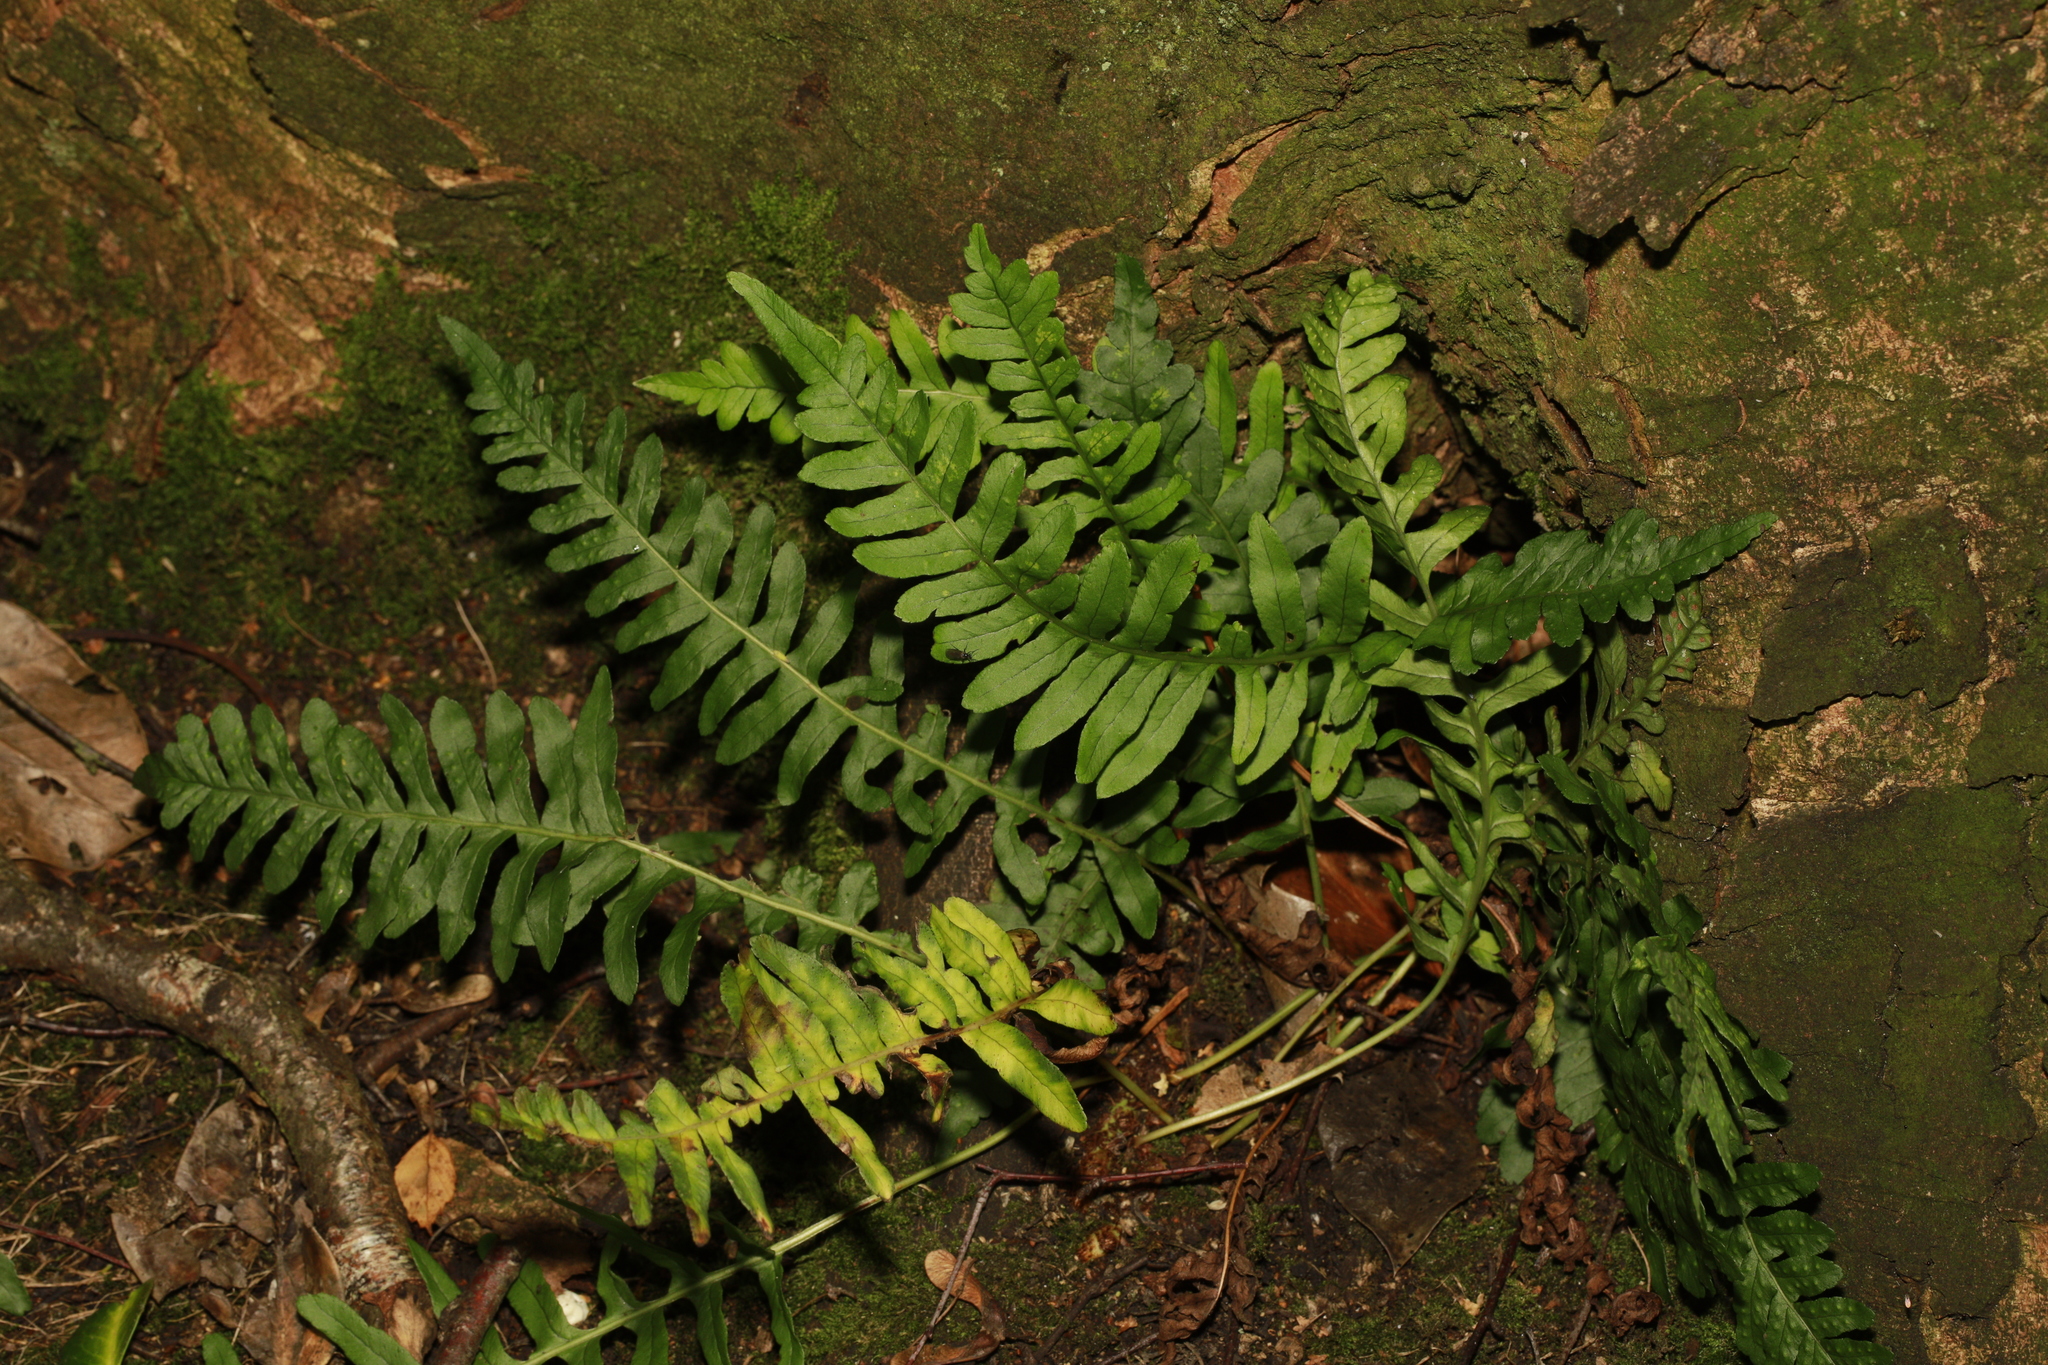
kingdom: Plantae
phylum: Tracheophyta
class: Polypodiopsida
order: Polypodiales
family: Polypodiaceae
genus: Polypodium
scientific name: Polypodium vulgare
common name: Common polypody
